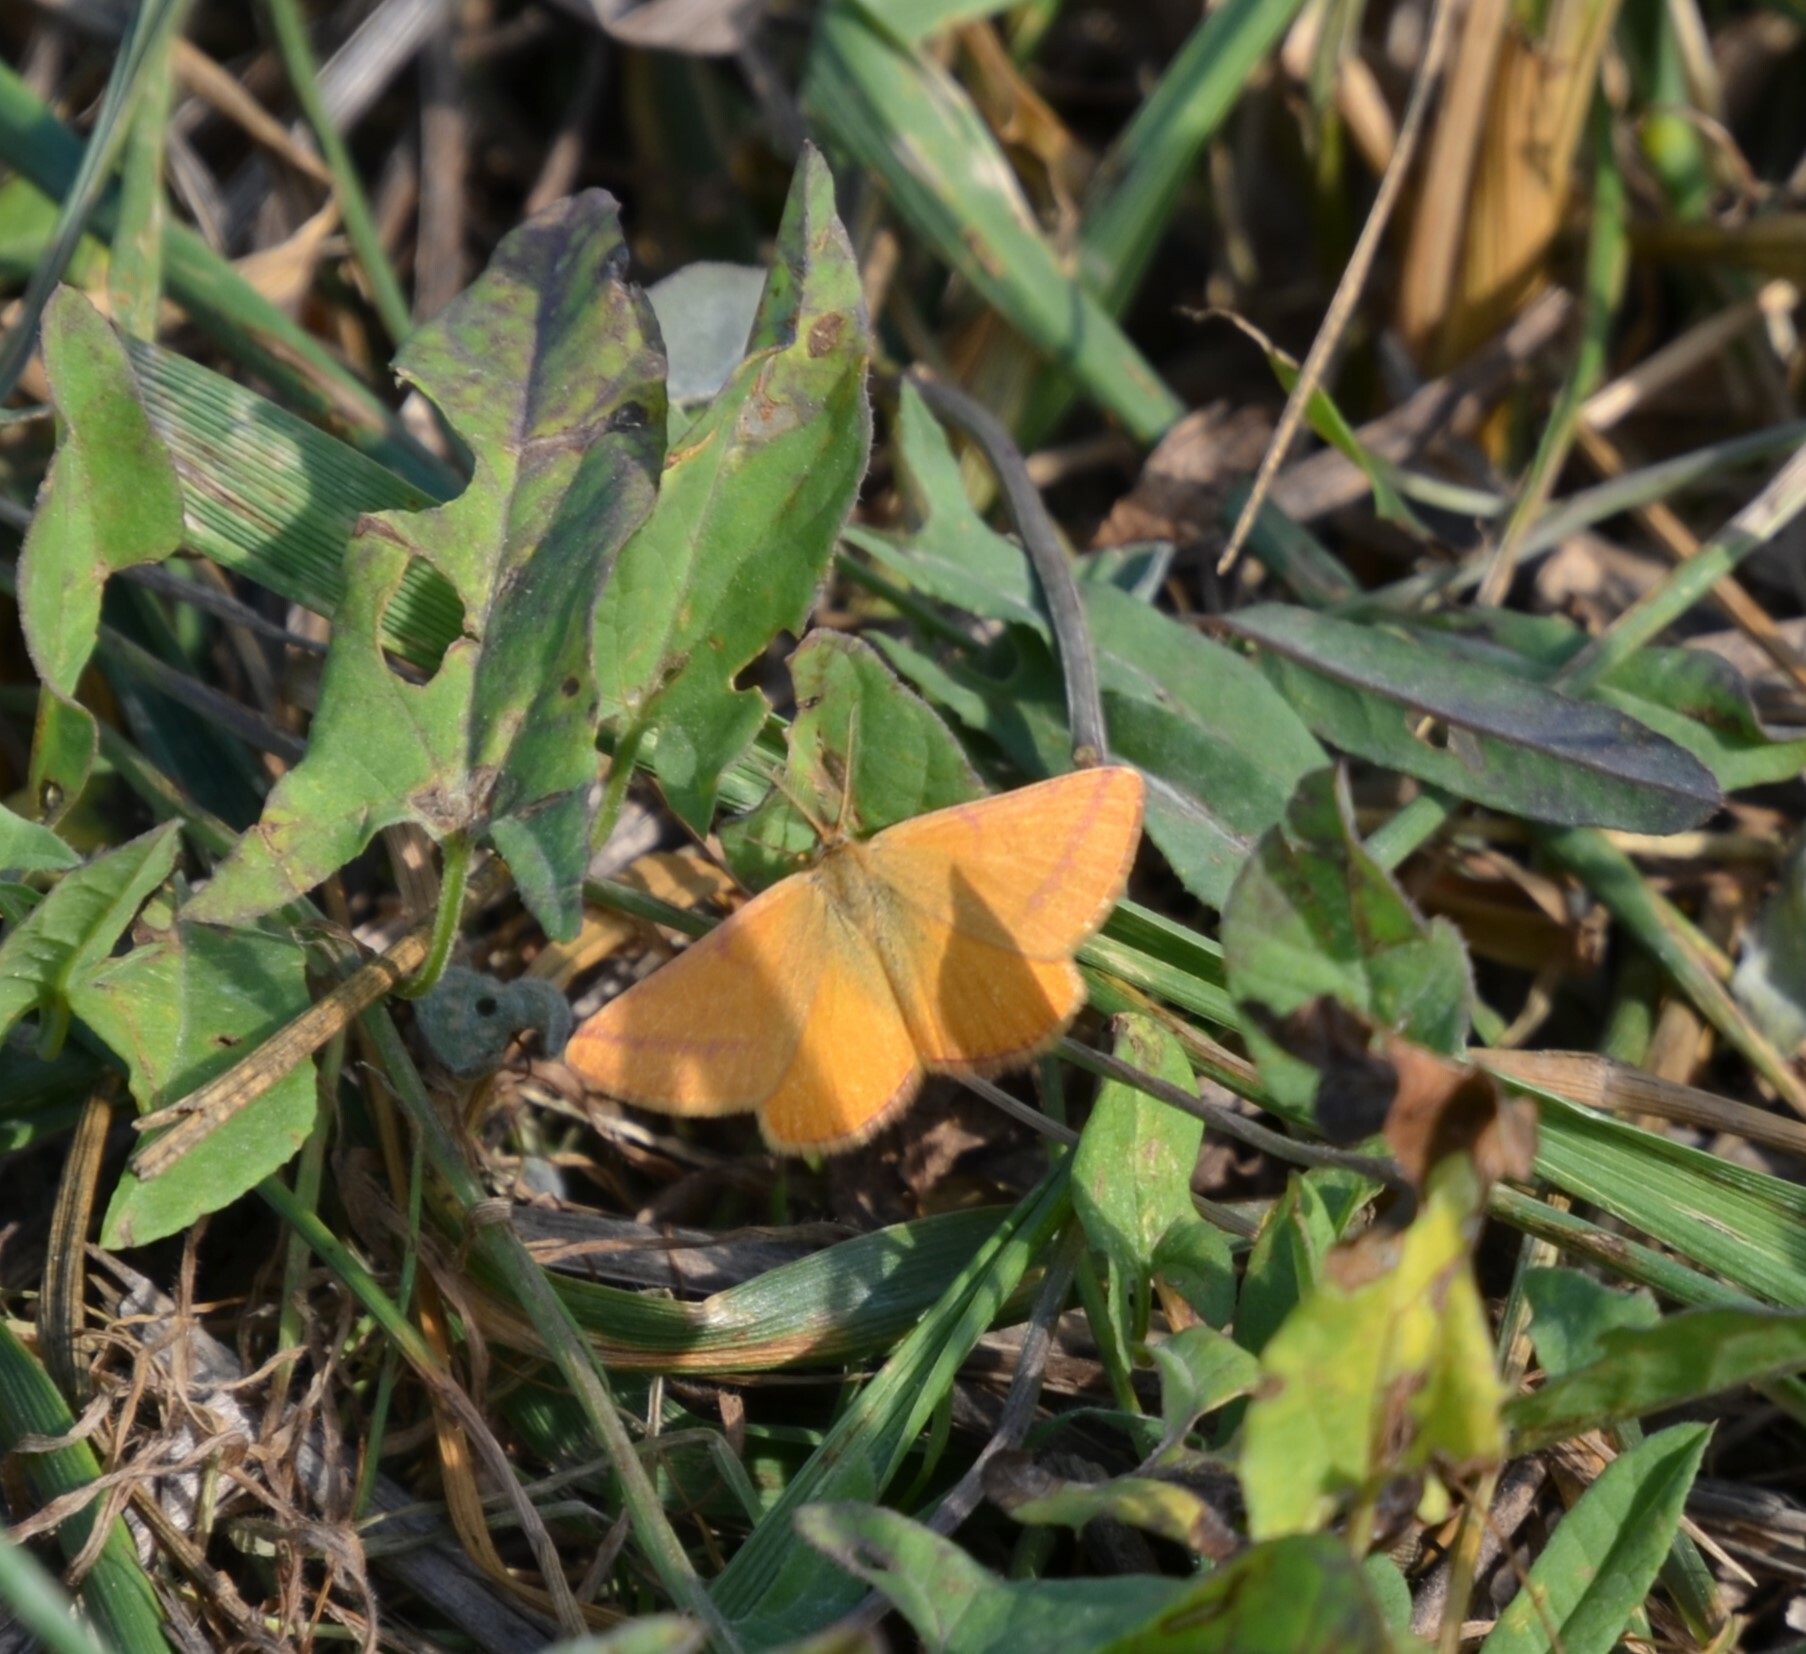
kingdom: Animalia
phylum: Arthropoda
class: Insecta
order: Lepidoptera
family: Geometridae
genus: Lythria
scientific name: Lythria purpuraria
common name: Purple-barred yellow
